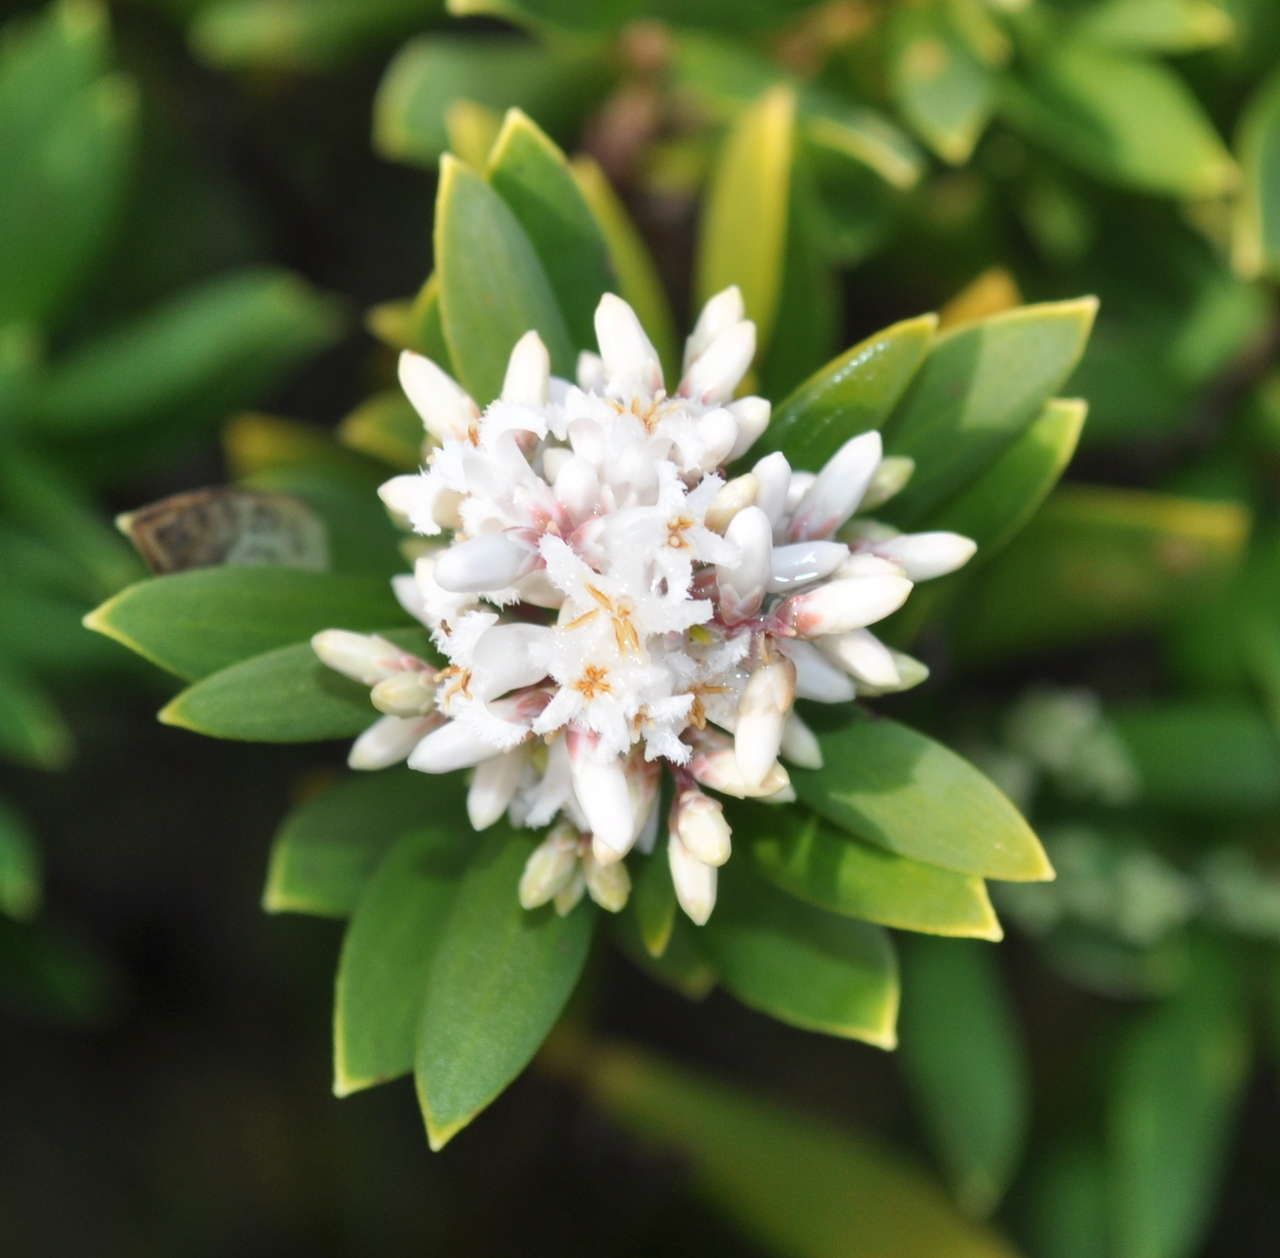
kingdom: Plantae
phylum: Tracheophyta
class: Magnoliopsida
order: Ericales
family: Ericaceae
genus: Leptecophylla
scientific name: Leptecophylla parvifolia
